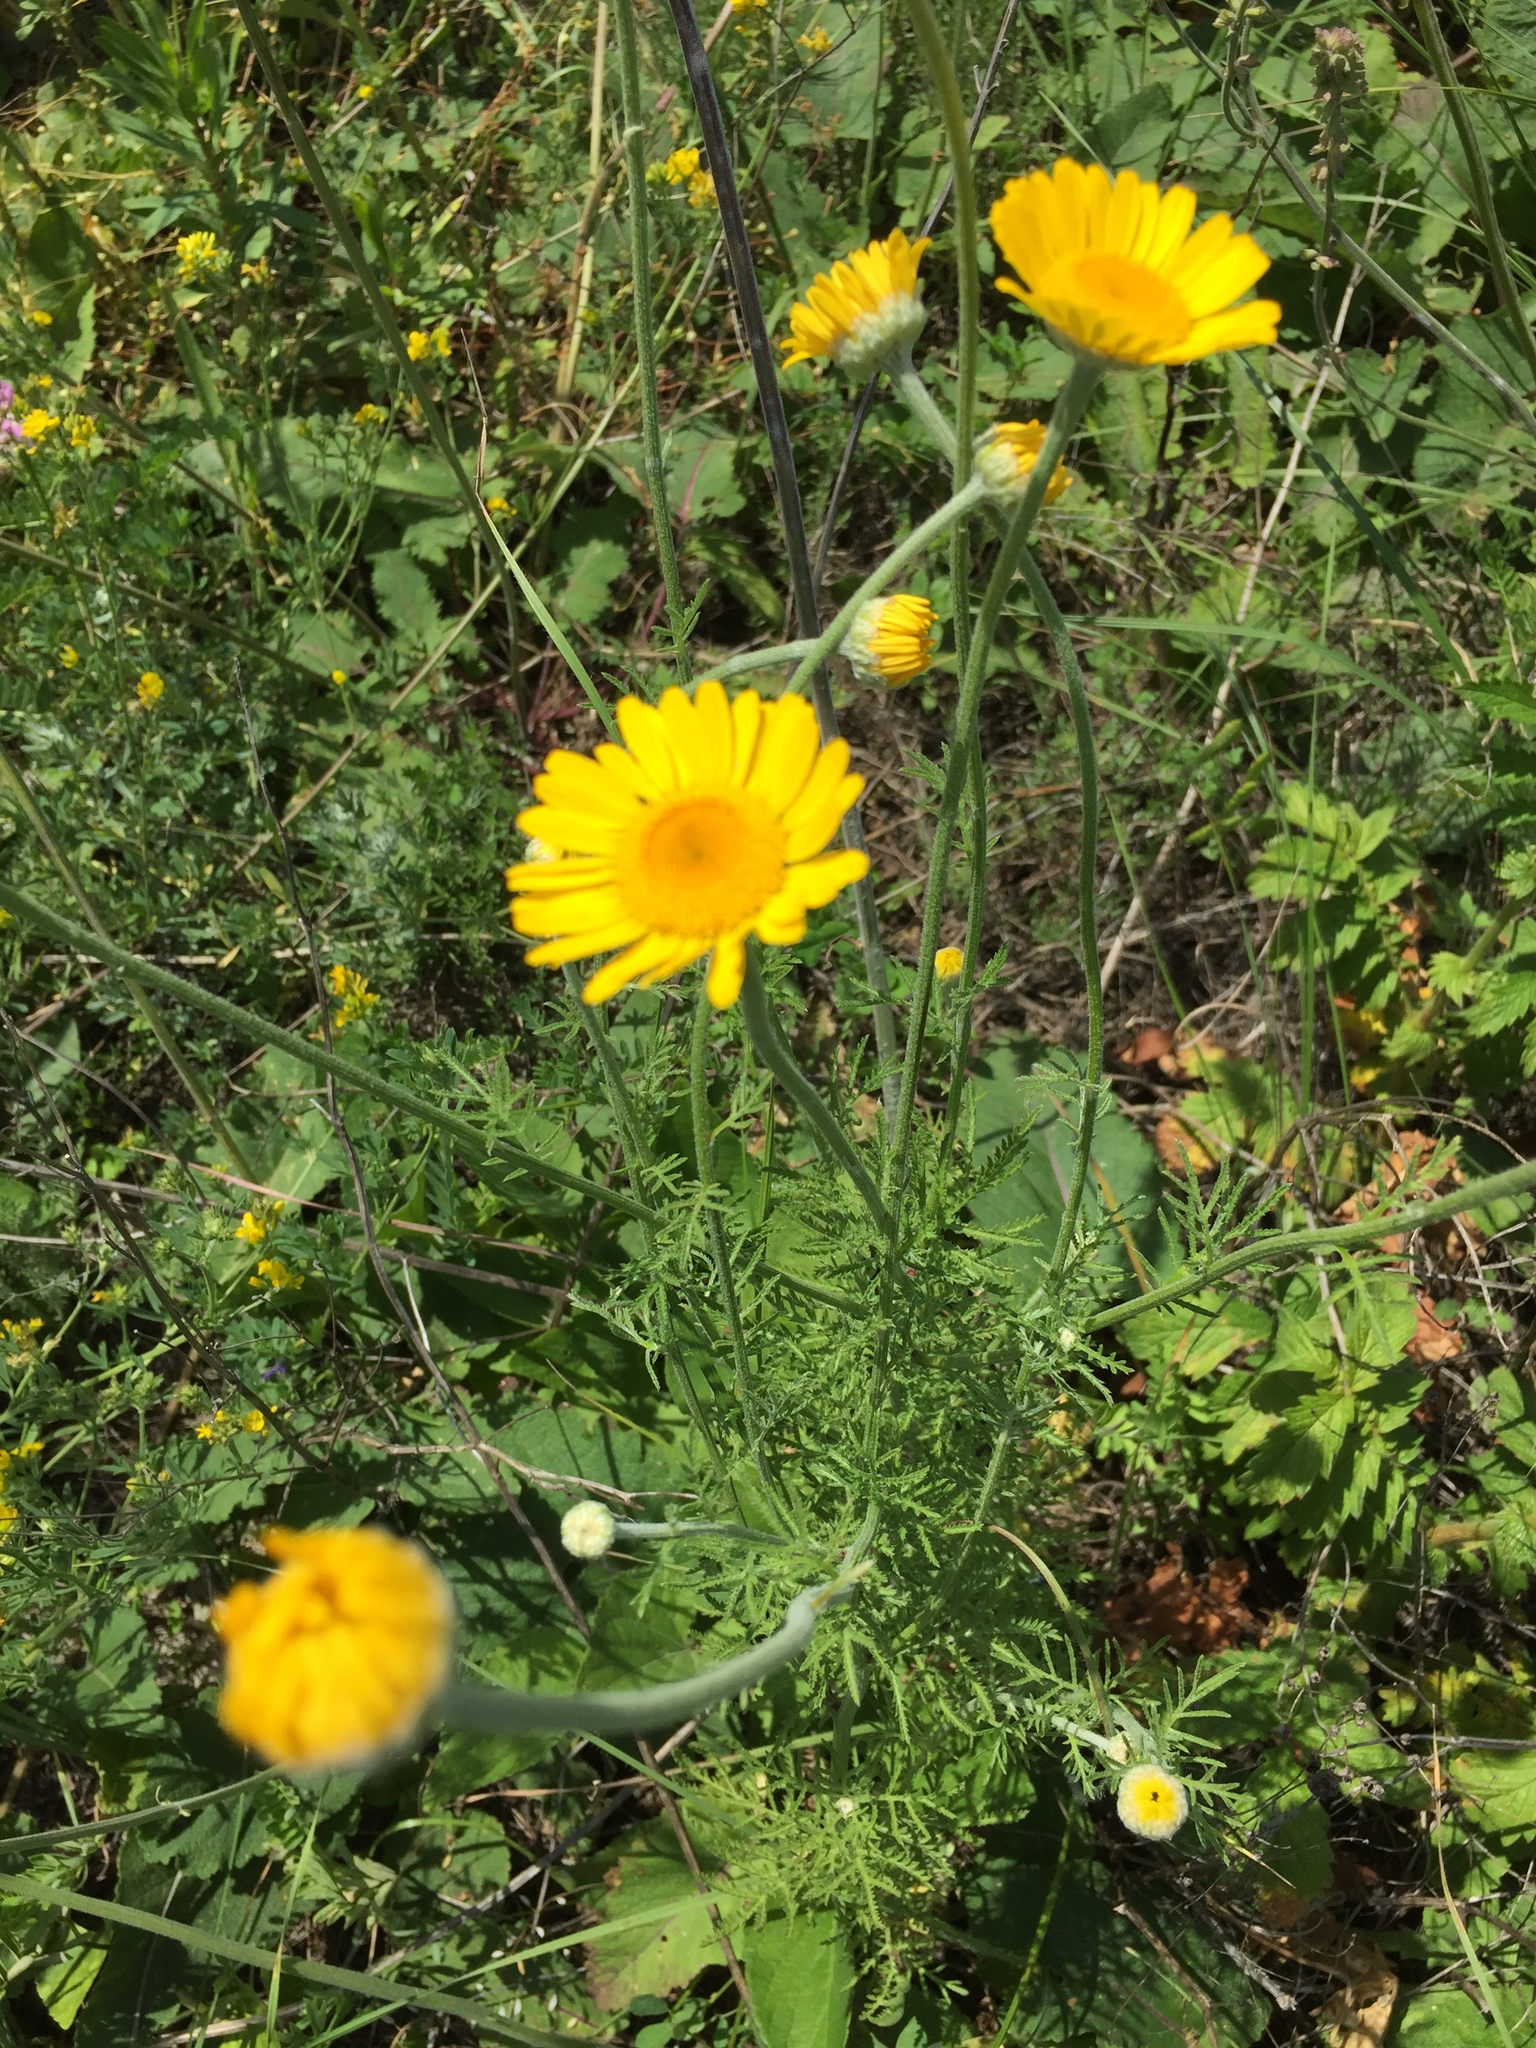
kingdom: Plantae
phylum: Tracheophyta
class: Magnoliopsida
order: Asterales
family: Asteraceae
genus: Cota
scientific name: Cota tinctoria
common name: Golden chamomile
